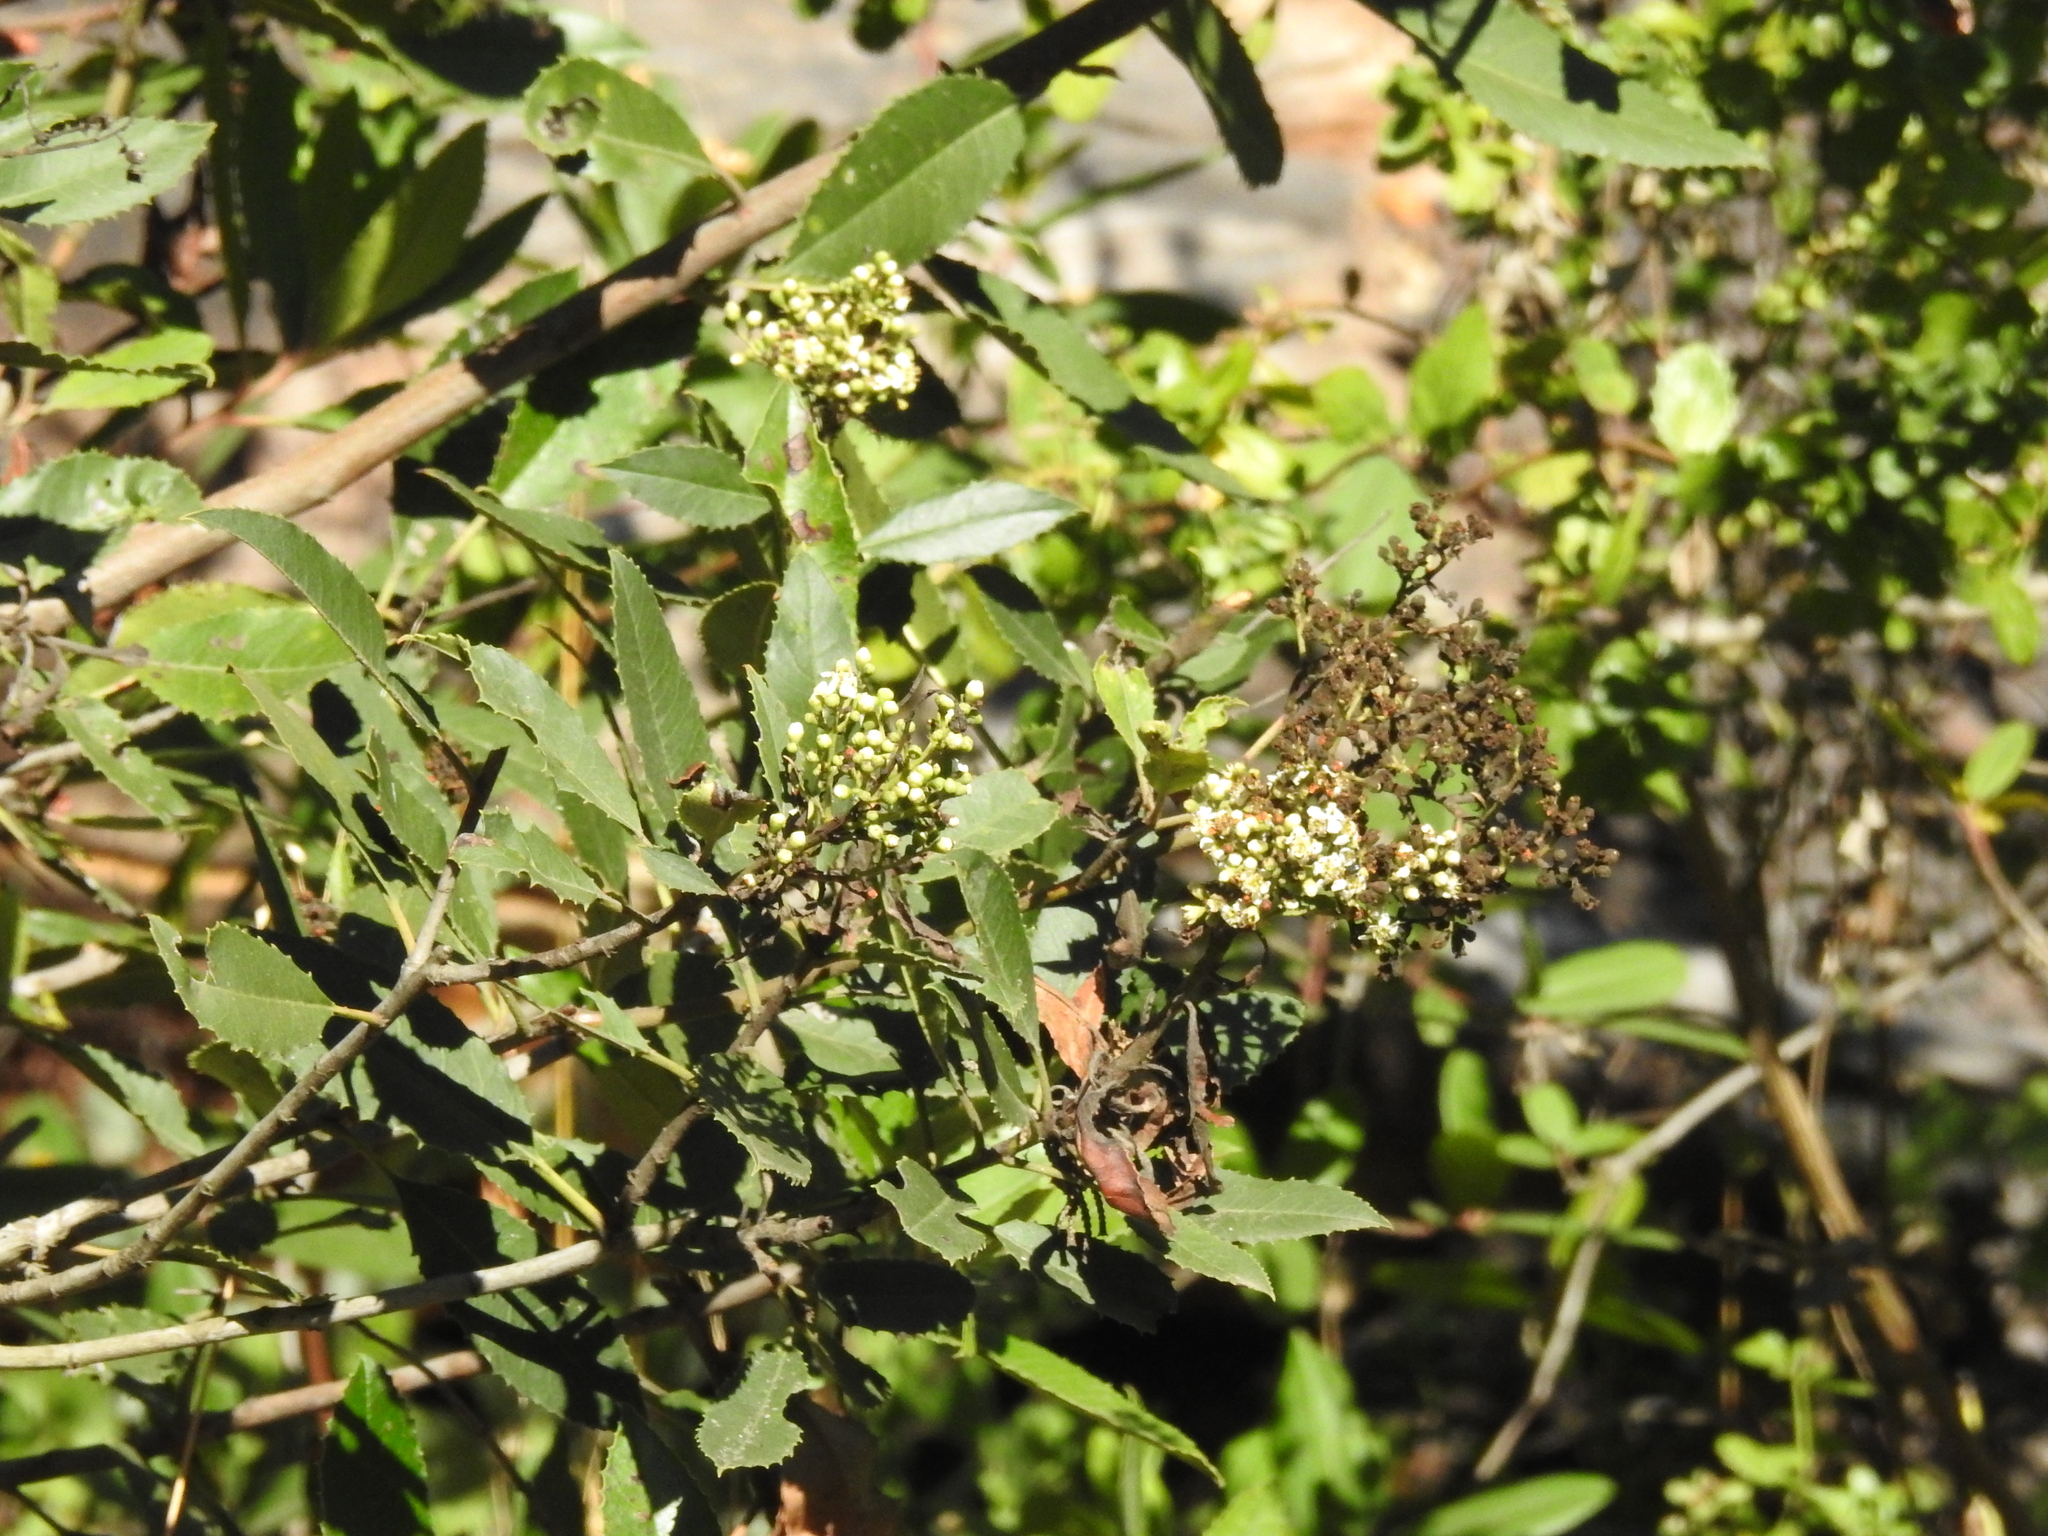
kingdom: Plantae
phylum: Tracheophyta
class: Magnoliopsida
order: Rosales
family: Rosaceae
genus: Heteromeles
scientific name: Heteromeles arbutifolia
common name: California-holly
